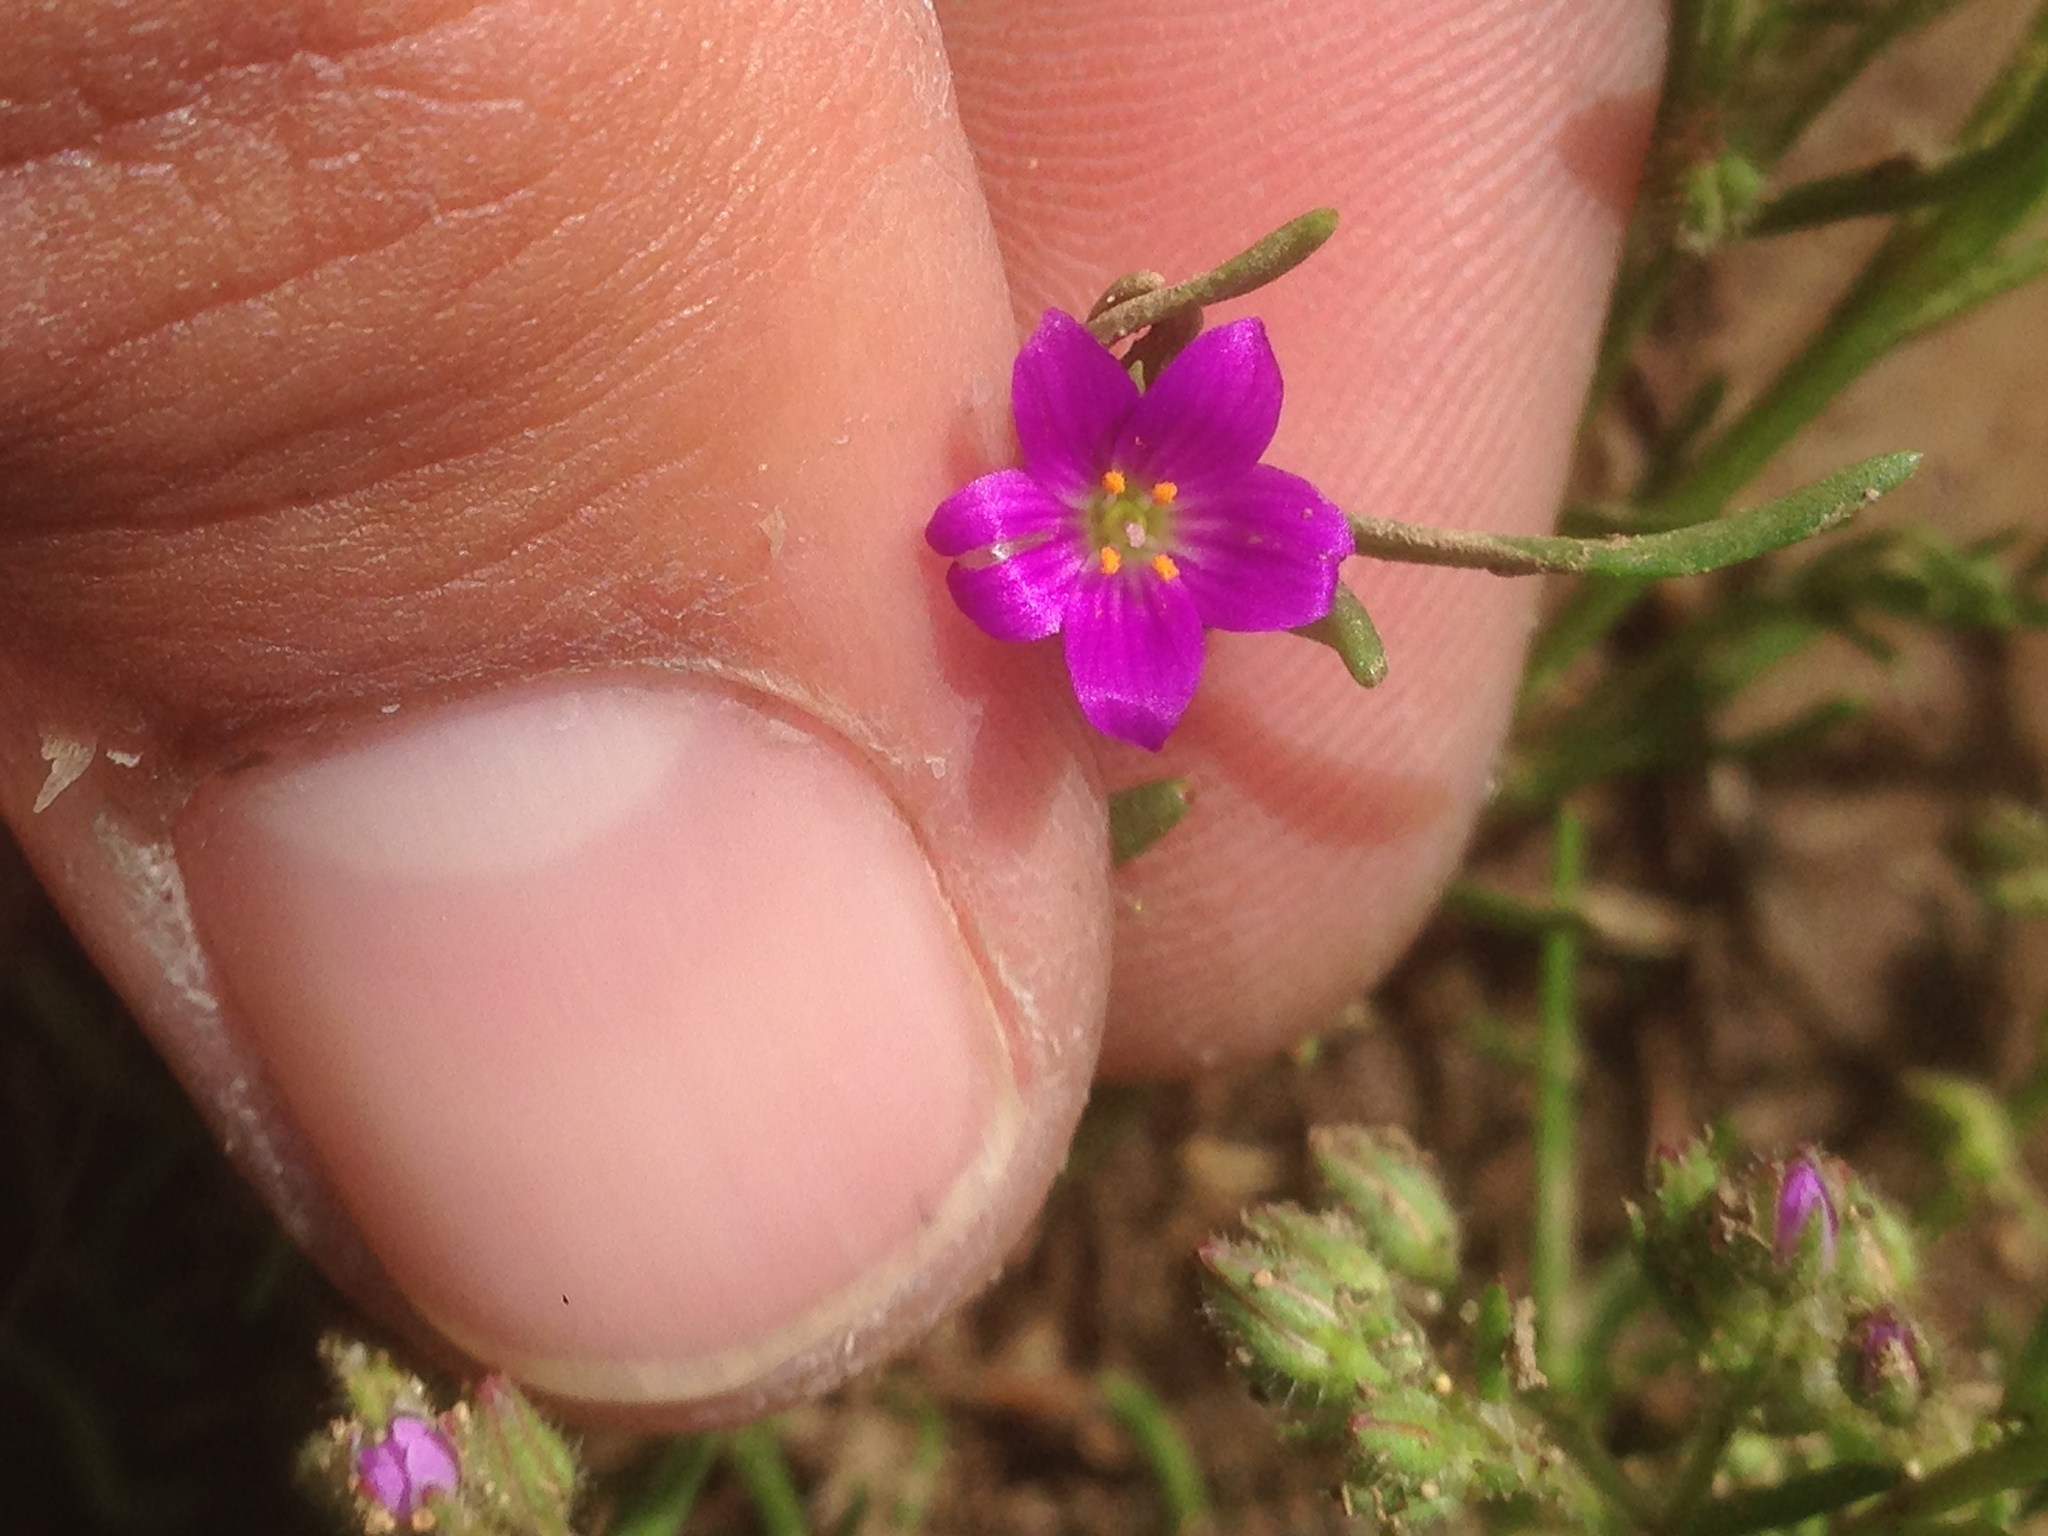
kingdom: Plantae
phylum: Tracheophyta
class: Magnoliopsida
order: Caryophyllales
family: Montiaceae
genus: Calandrinia
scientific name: Calandrinia menziesii
